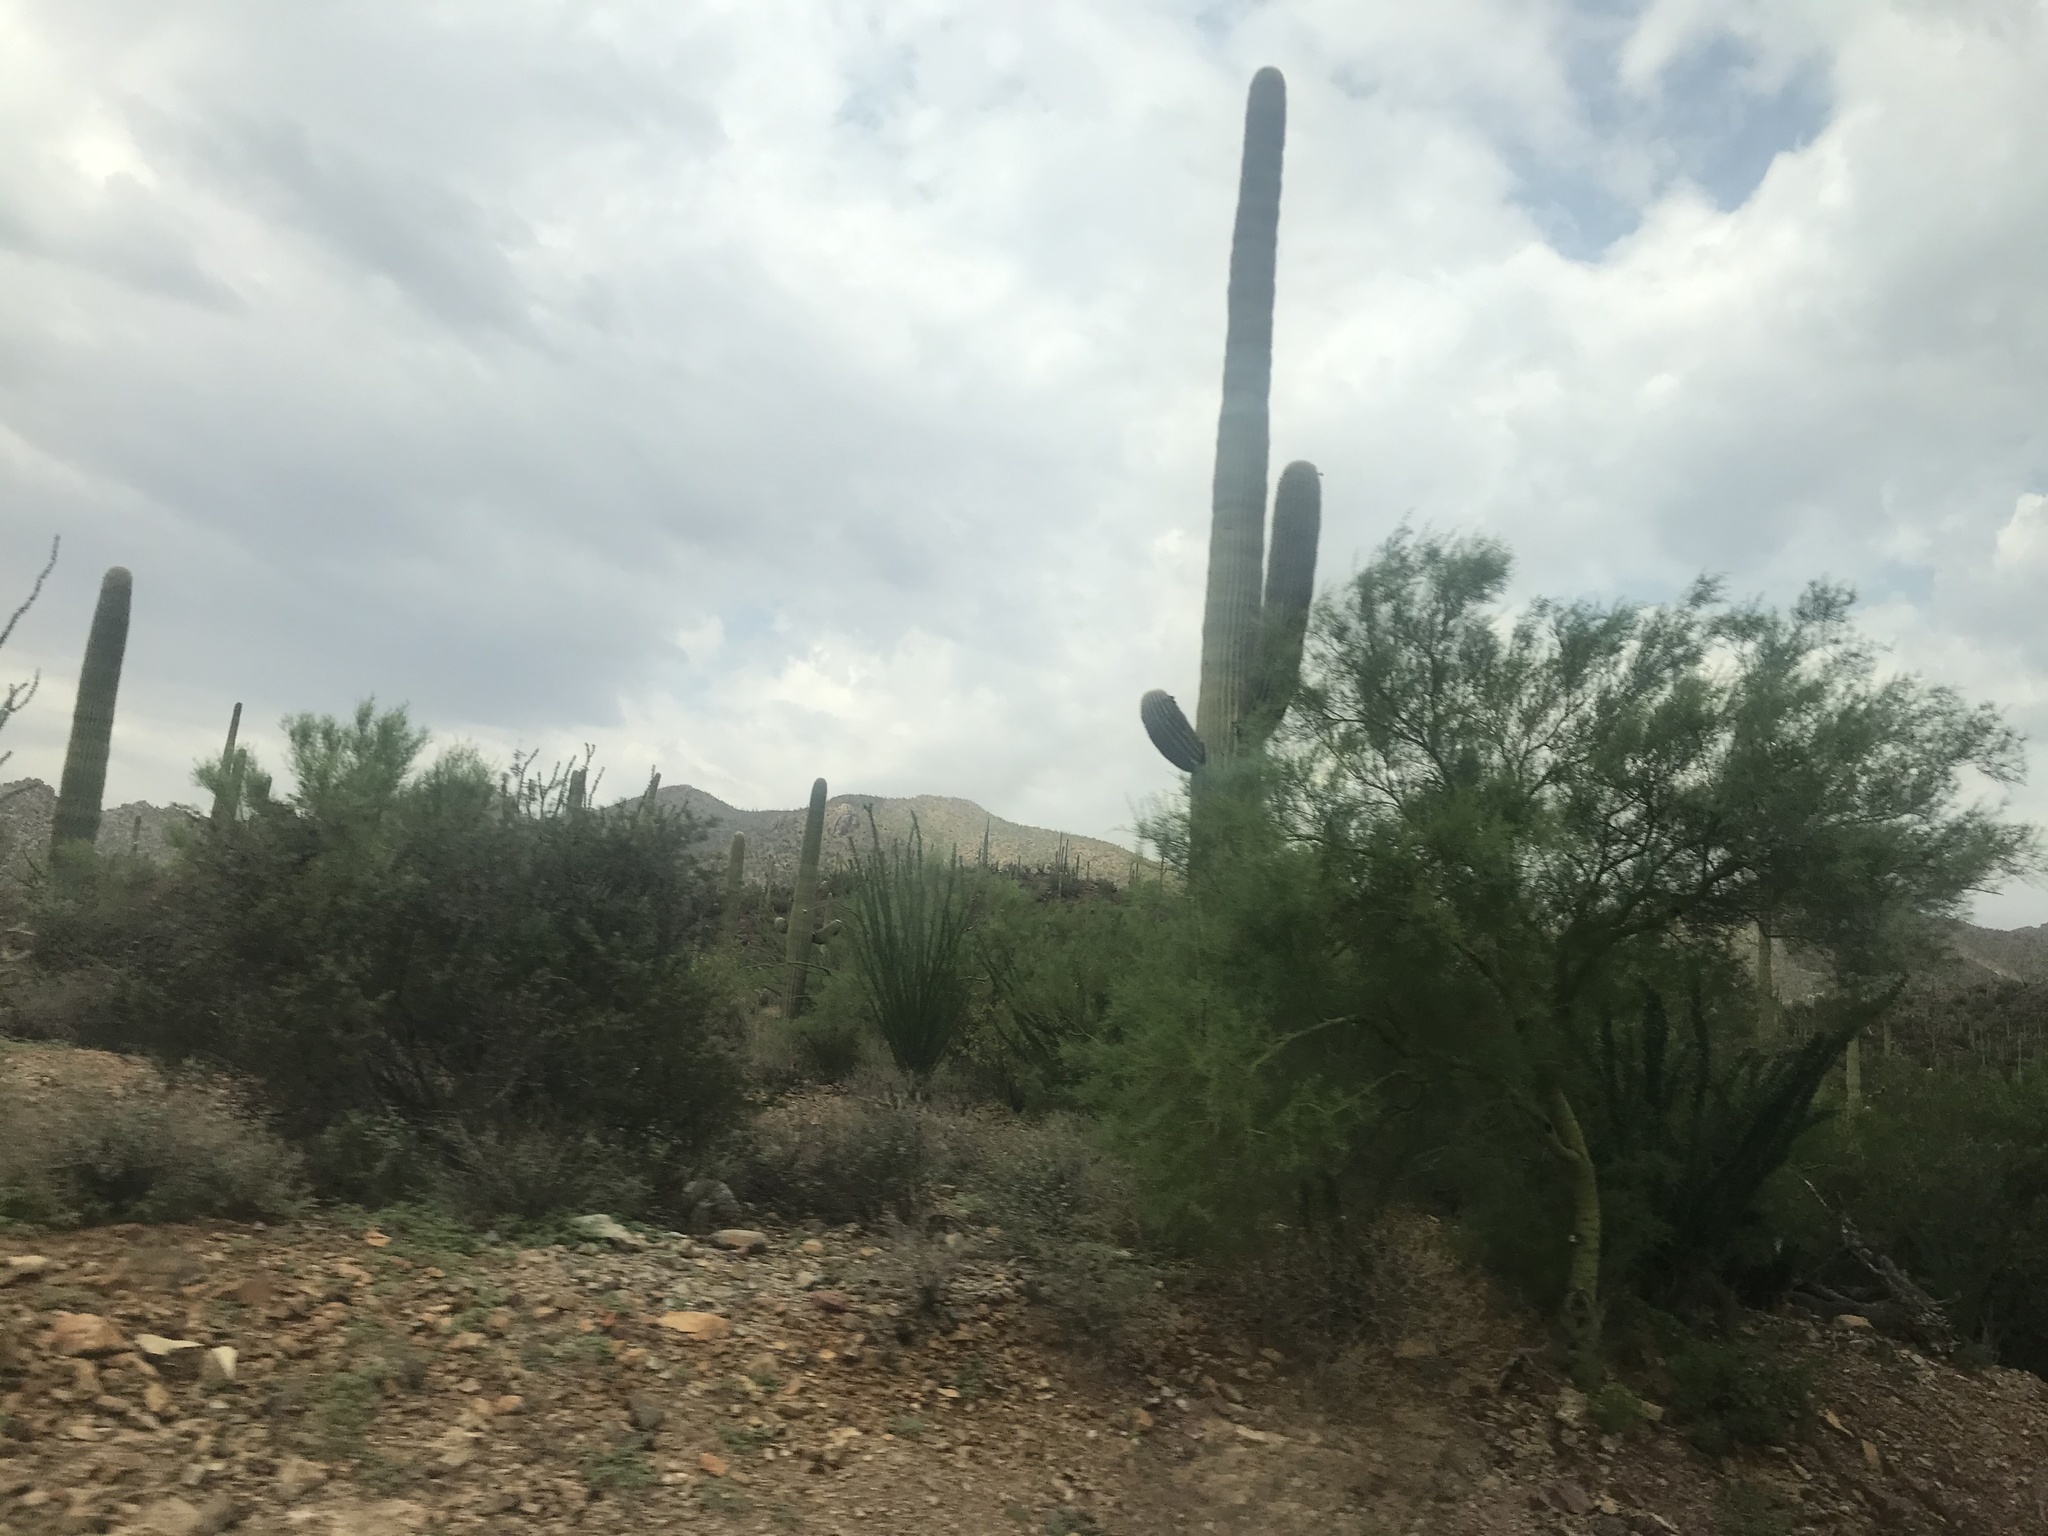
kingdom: Plantae
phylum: Tracheophyta
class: Magnoliopsida
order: Caryophyllales
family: Cactaceae
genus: Carnegiea
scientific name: Carnegiea gigantea
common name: Saguaro
